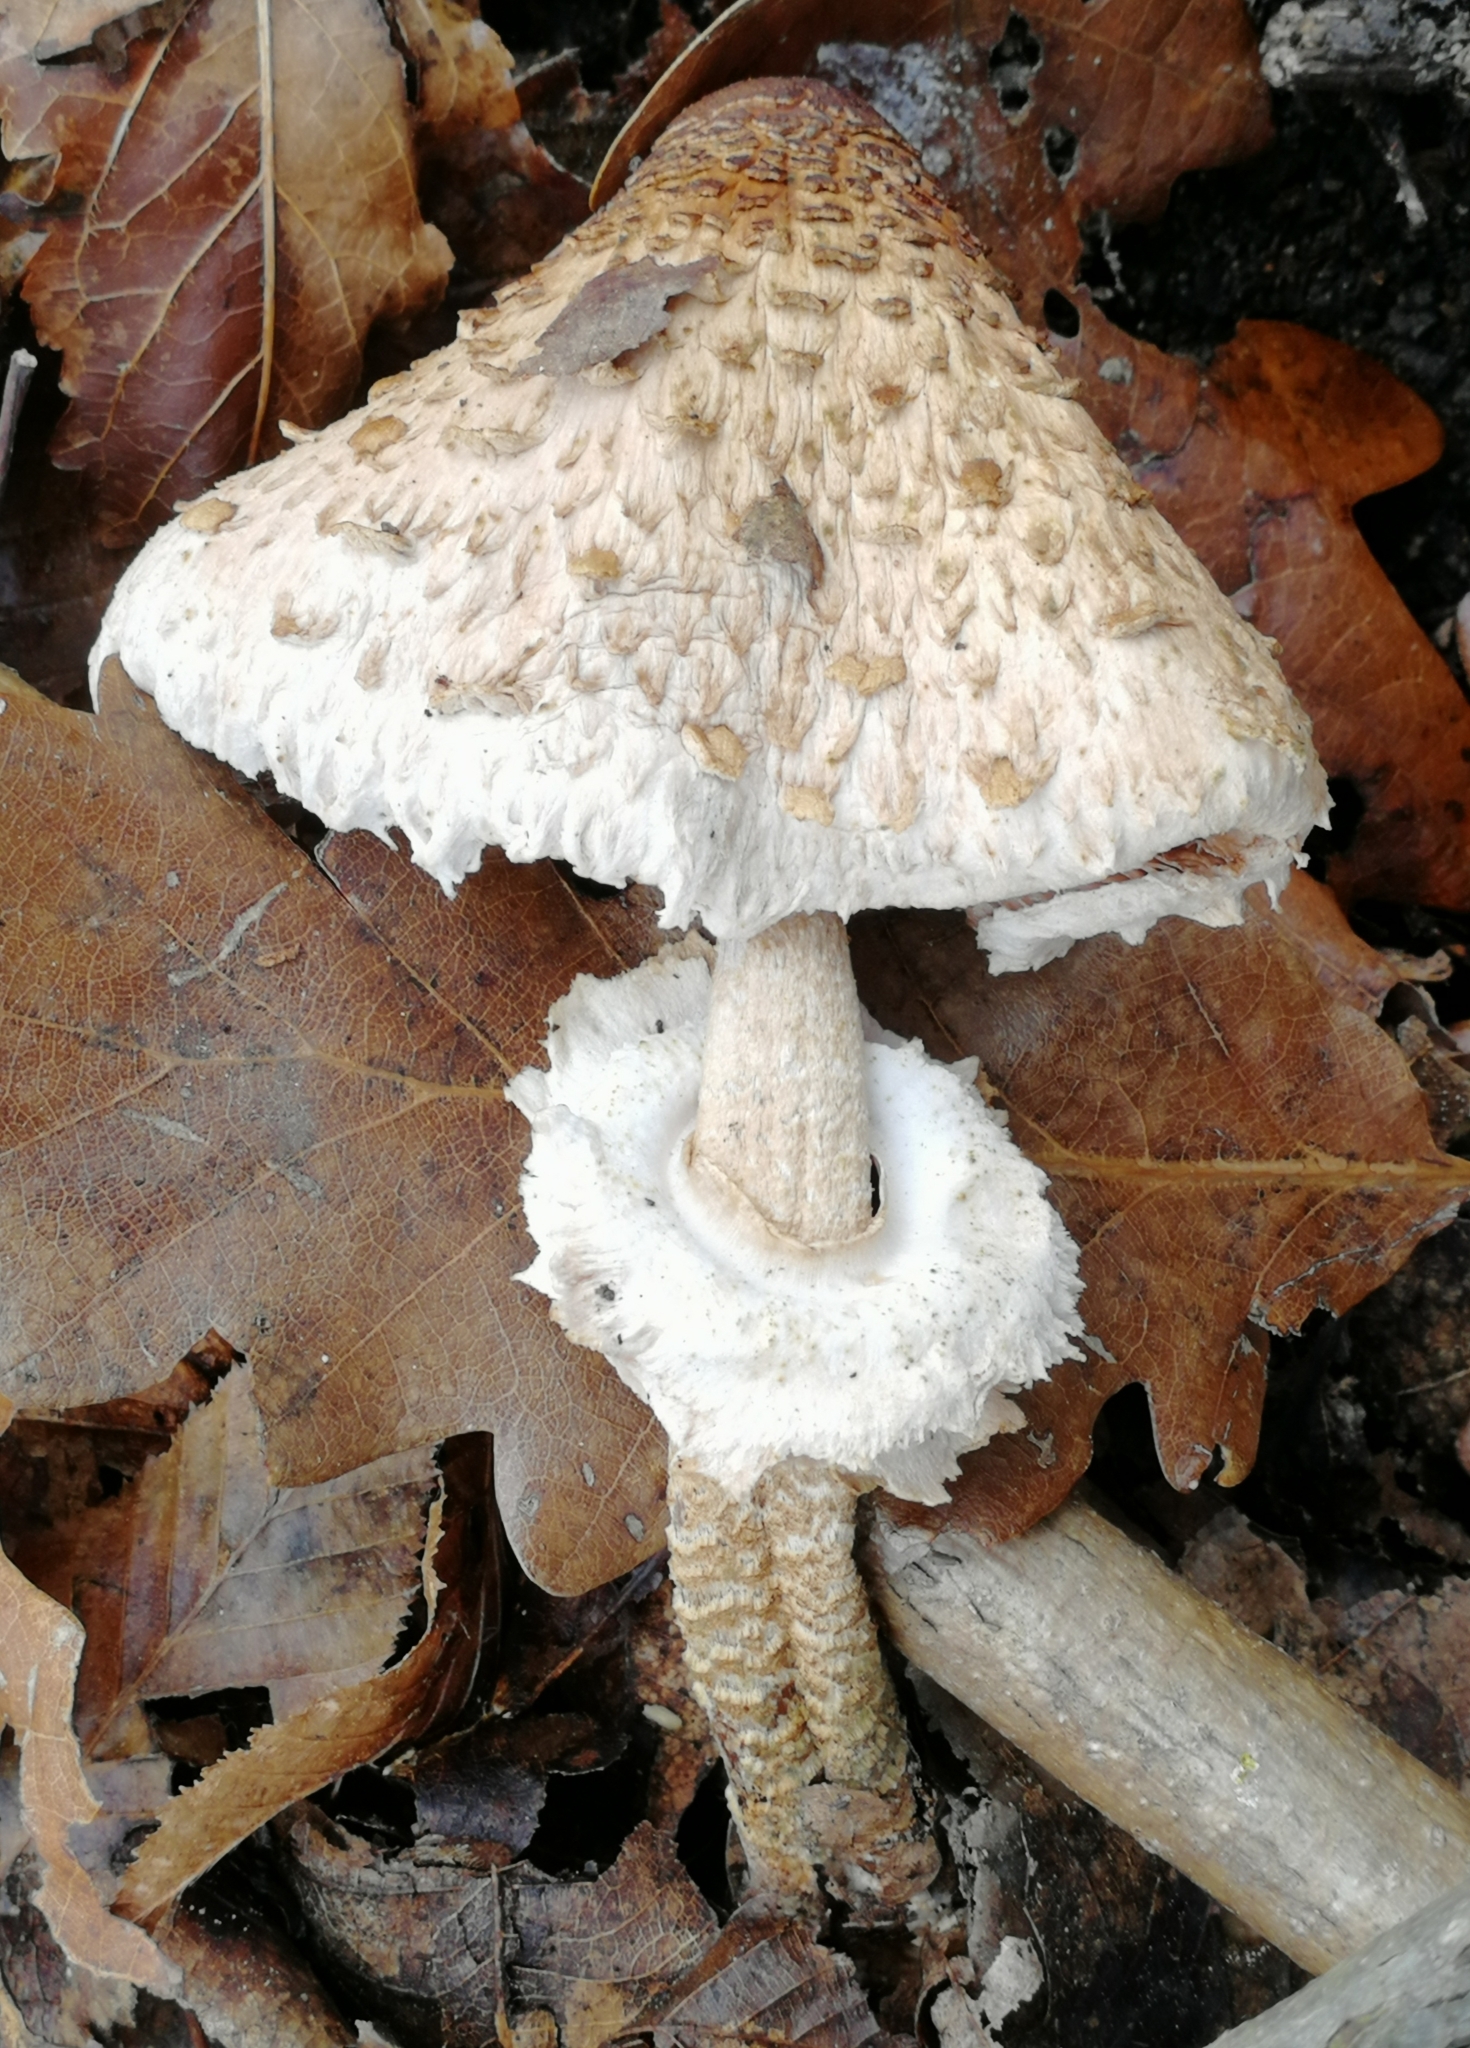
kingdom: Fungi
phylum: Basidiomycota
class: Agaricomycetes
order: Agaricales
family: Agaricaceae
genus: Macrolepiota
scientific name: Macrolepiota procera
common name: Parasol
